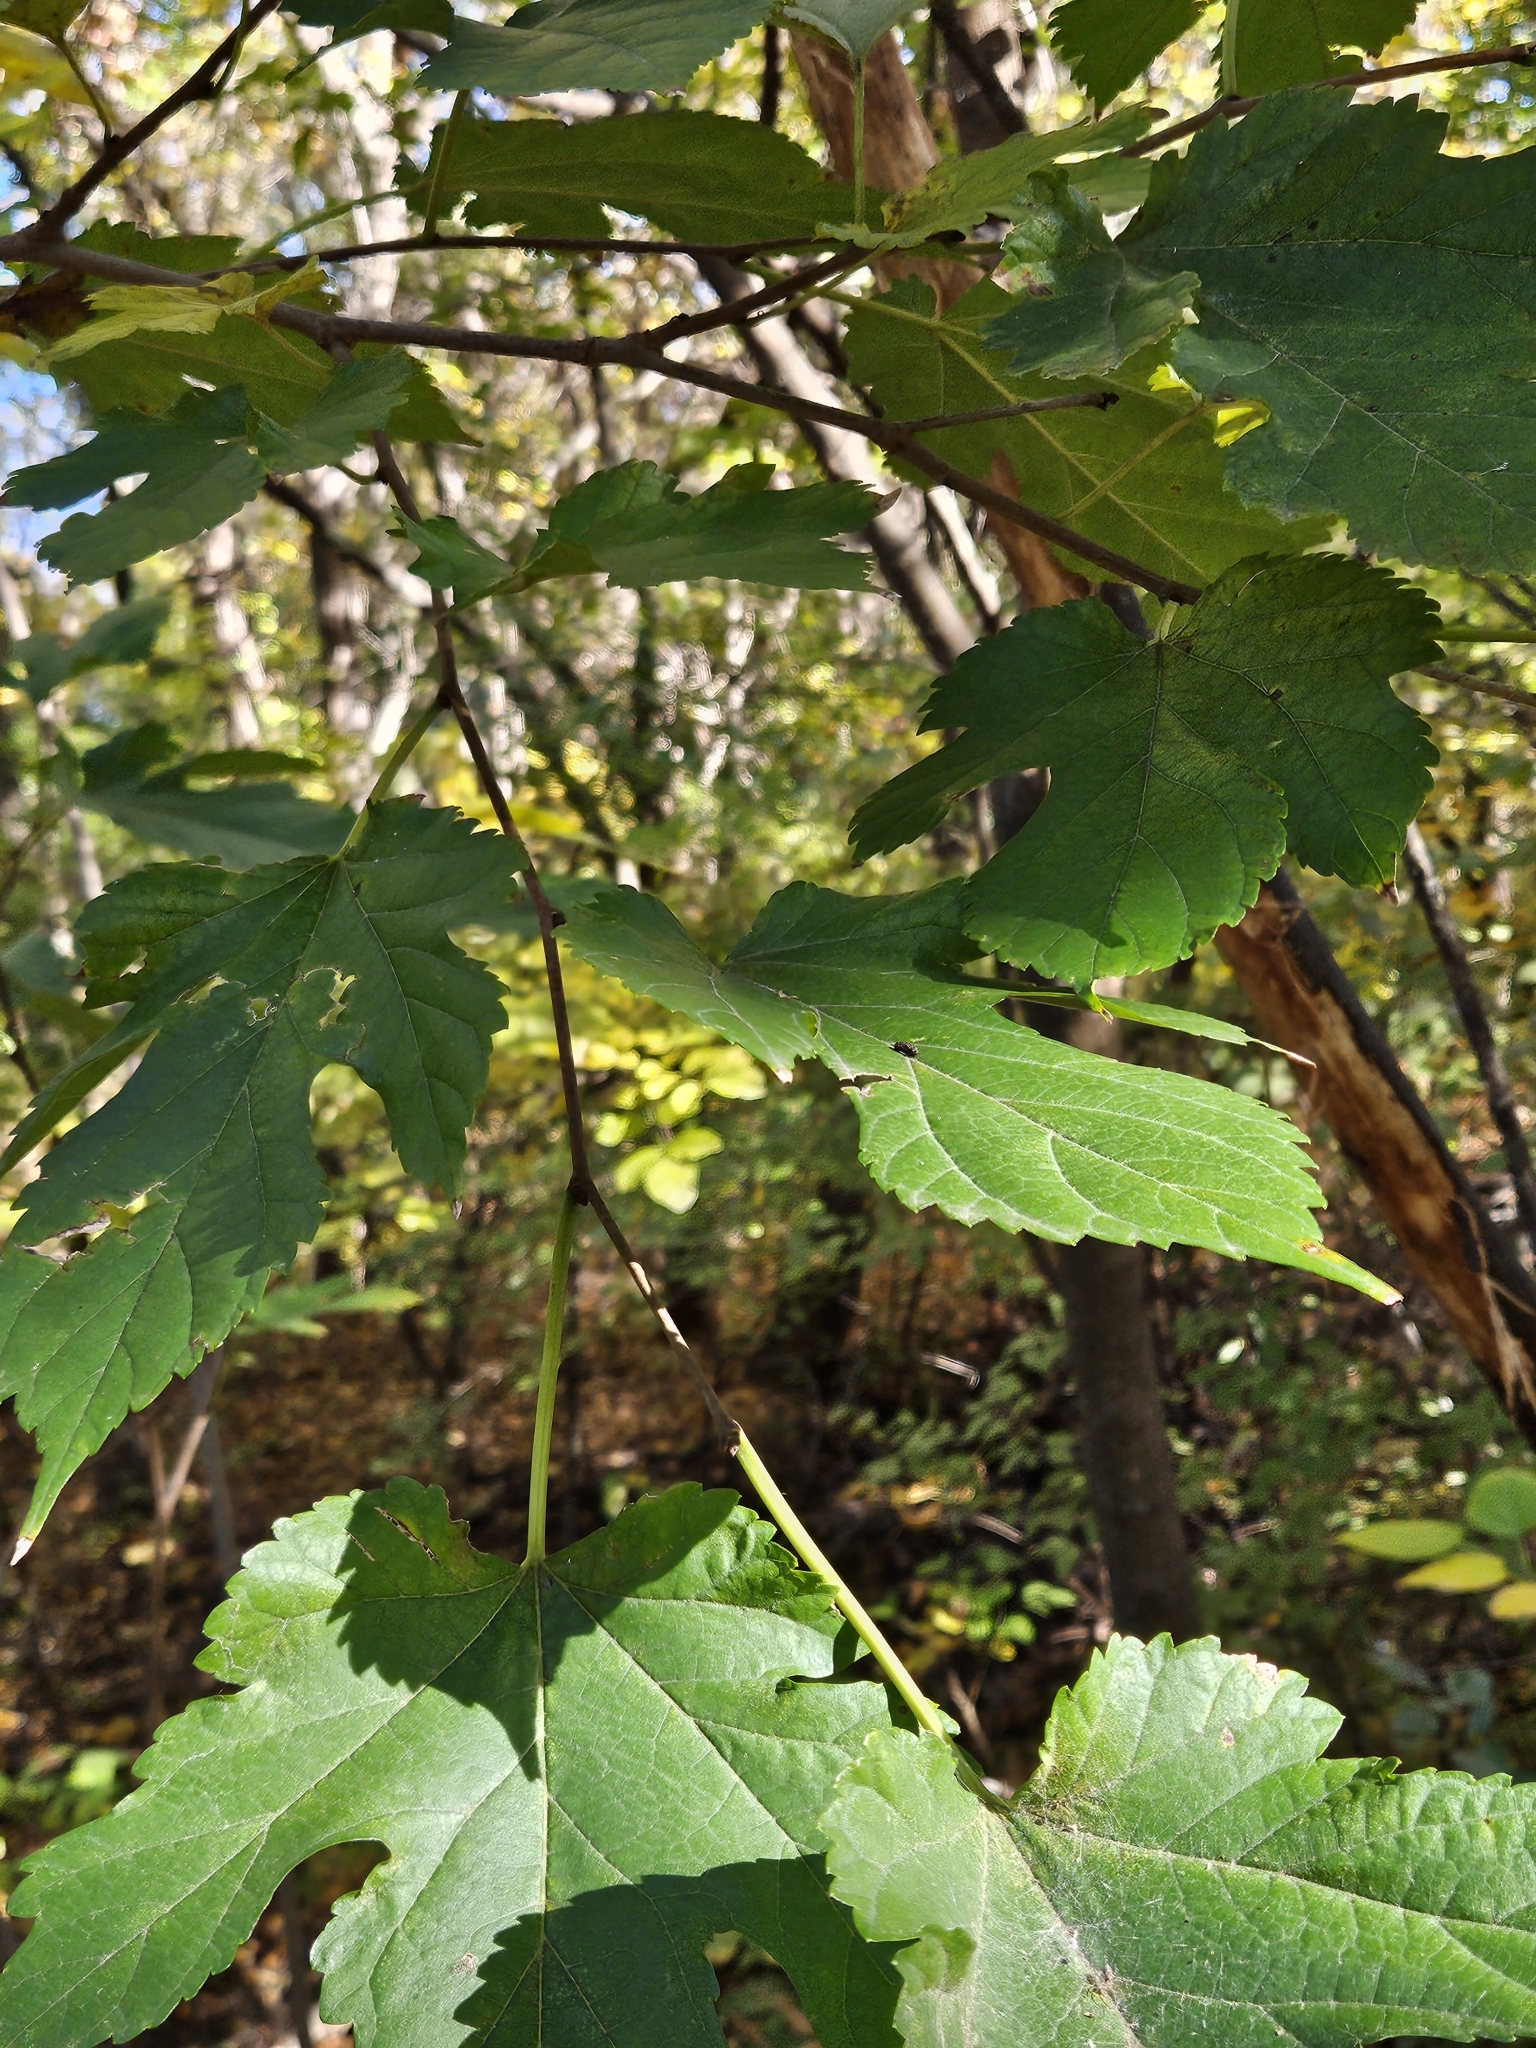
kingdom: Plantae
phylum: Tracheophyta
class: Magnoliopsida
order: Rosales
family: Moraceae
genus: Morus
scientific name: Morus rubra
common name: Red mulberry
